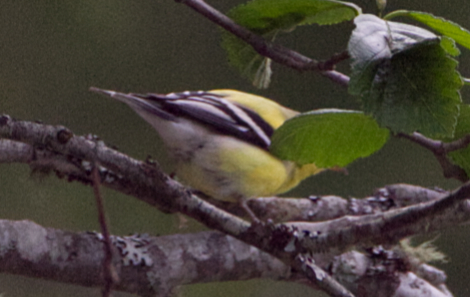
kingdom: Animalia
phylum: Chordata
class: Aves
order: Passeriformes
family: Fringillidae
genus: Spinus
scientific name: Spinus tristis
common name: American goldfinch
